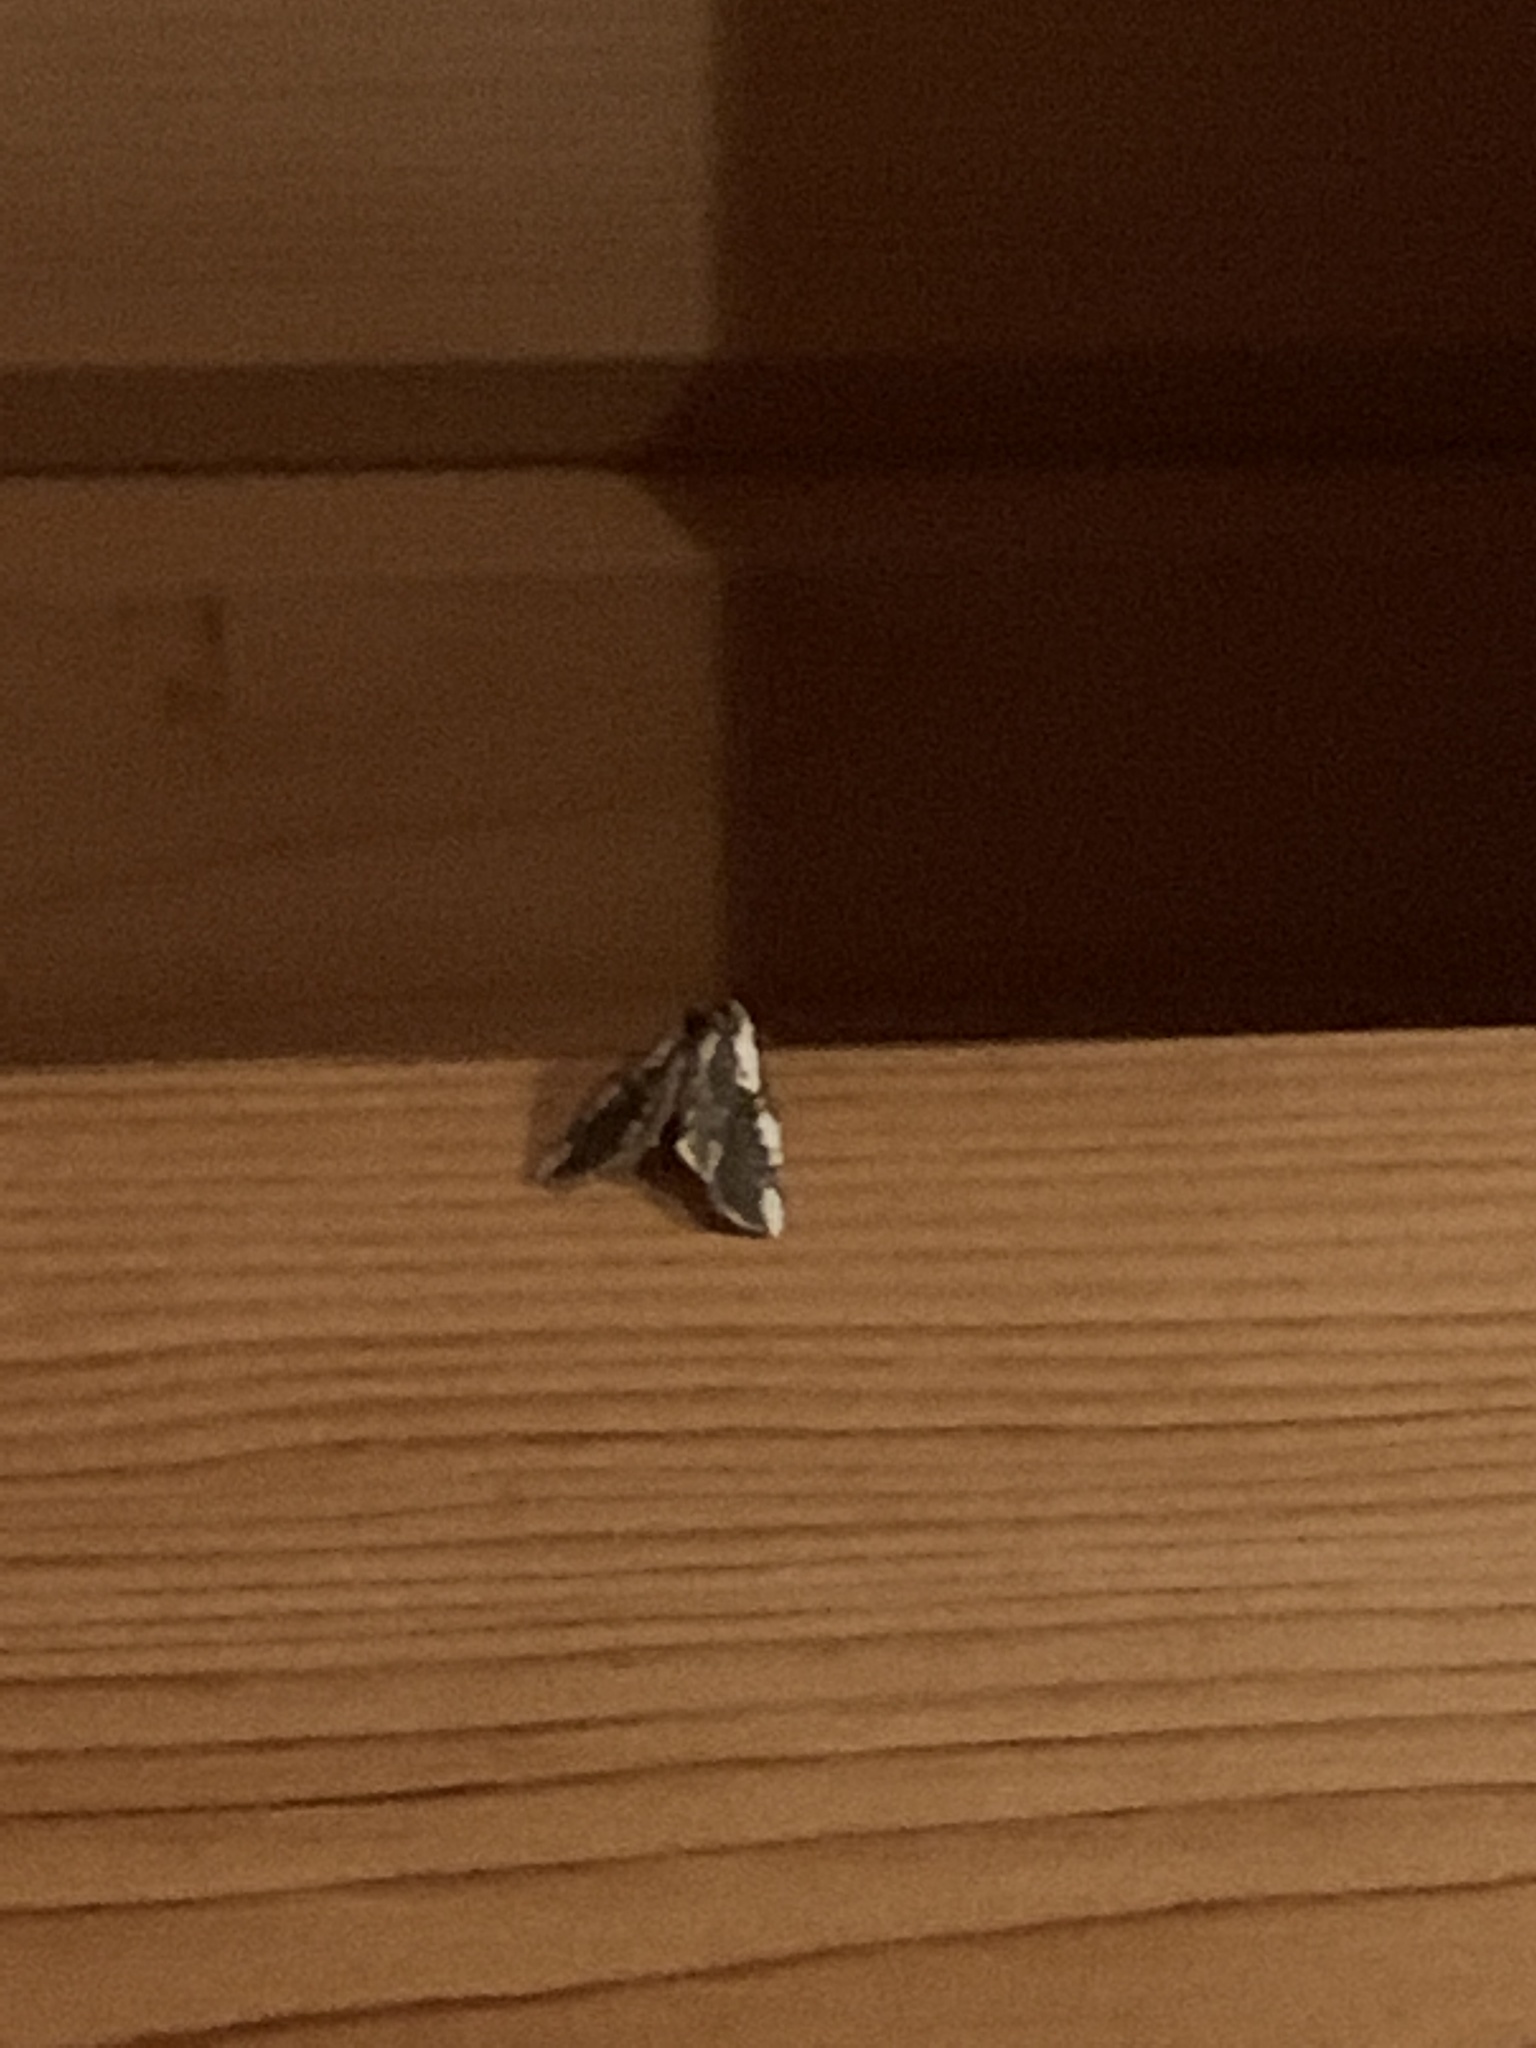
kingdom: Animalia
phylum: Arthropoda
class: Insecta
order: Lepidoptera
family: Drepanidae
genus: Euthyatira
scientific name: Euthyatira pudens
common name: Dogwood thyatirid moth
